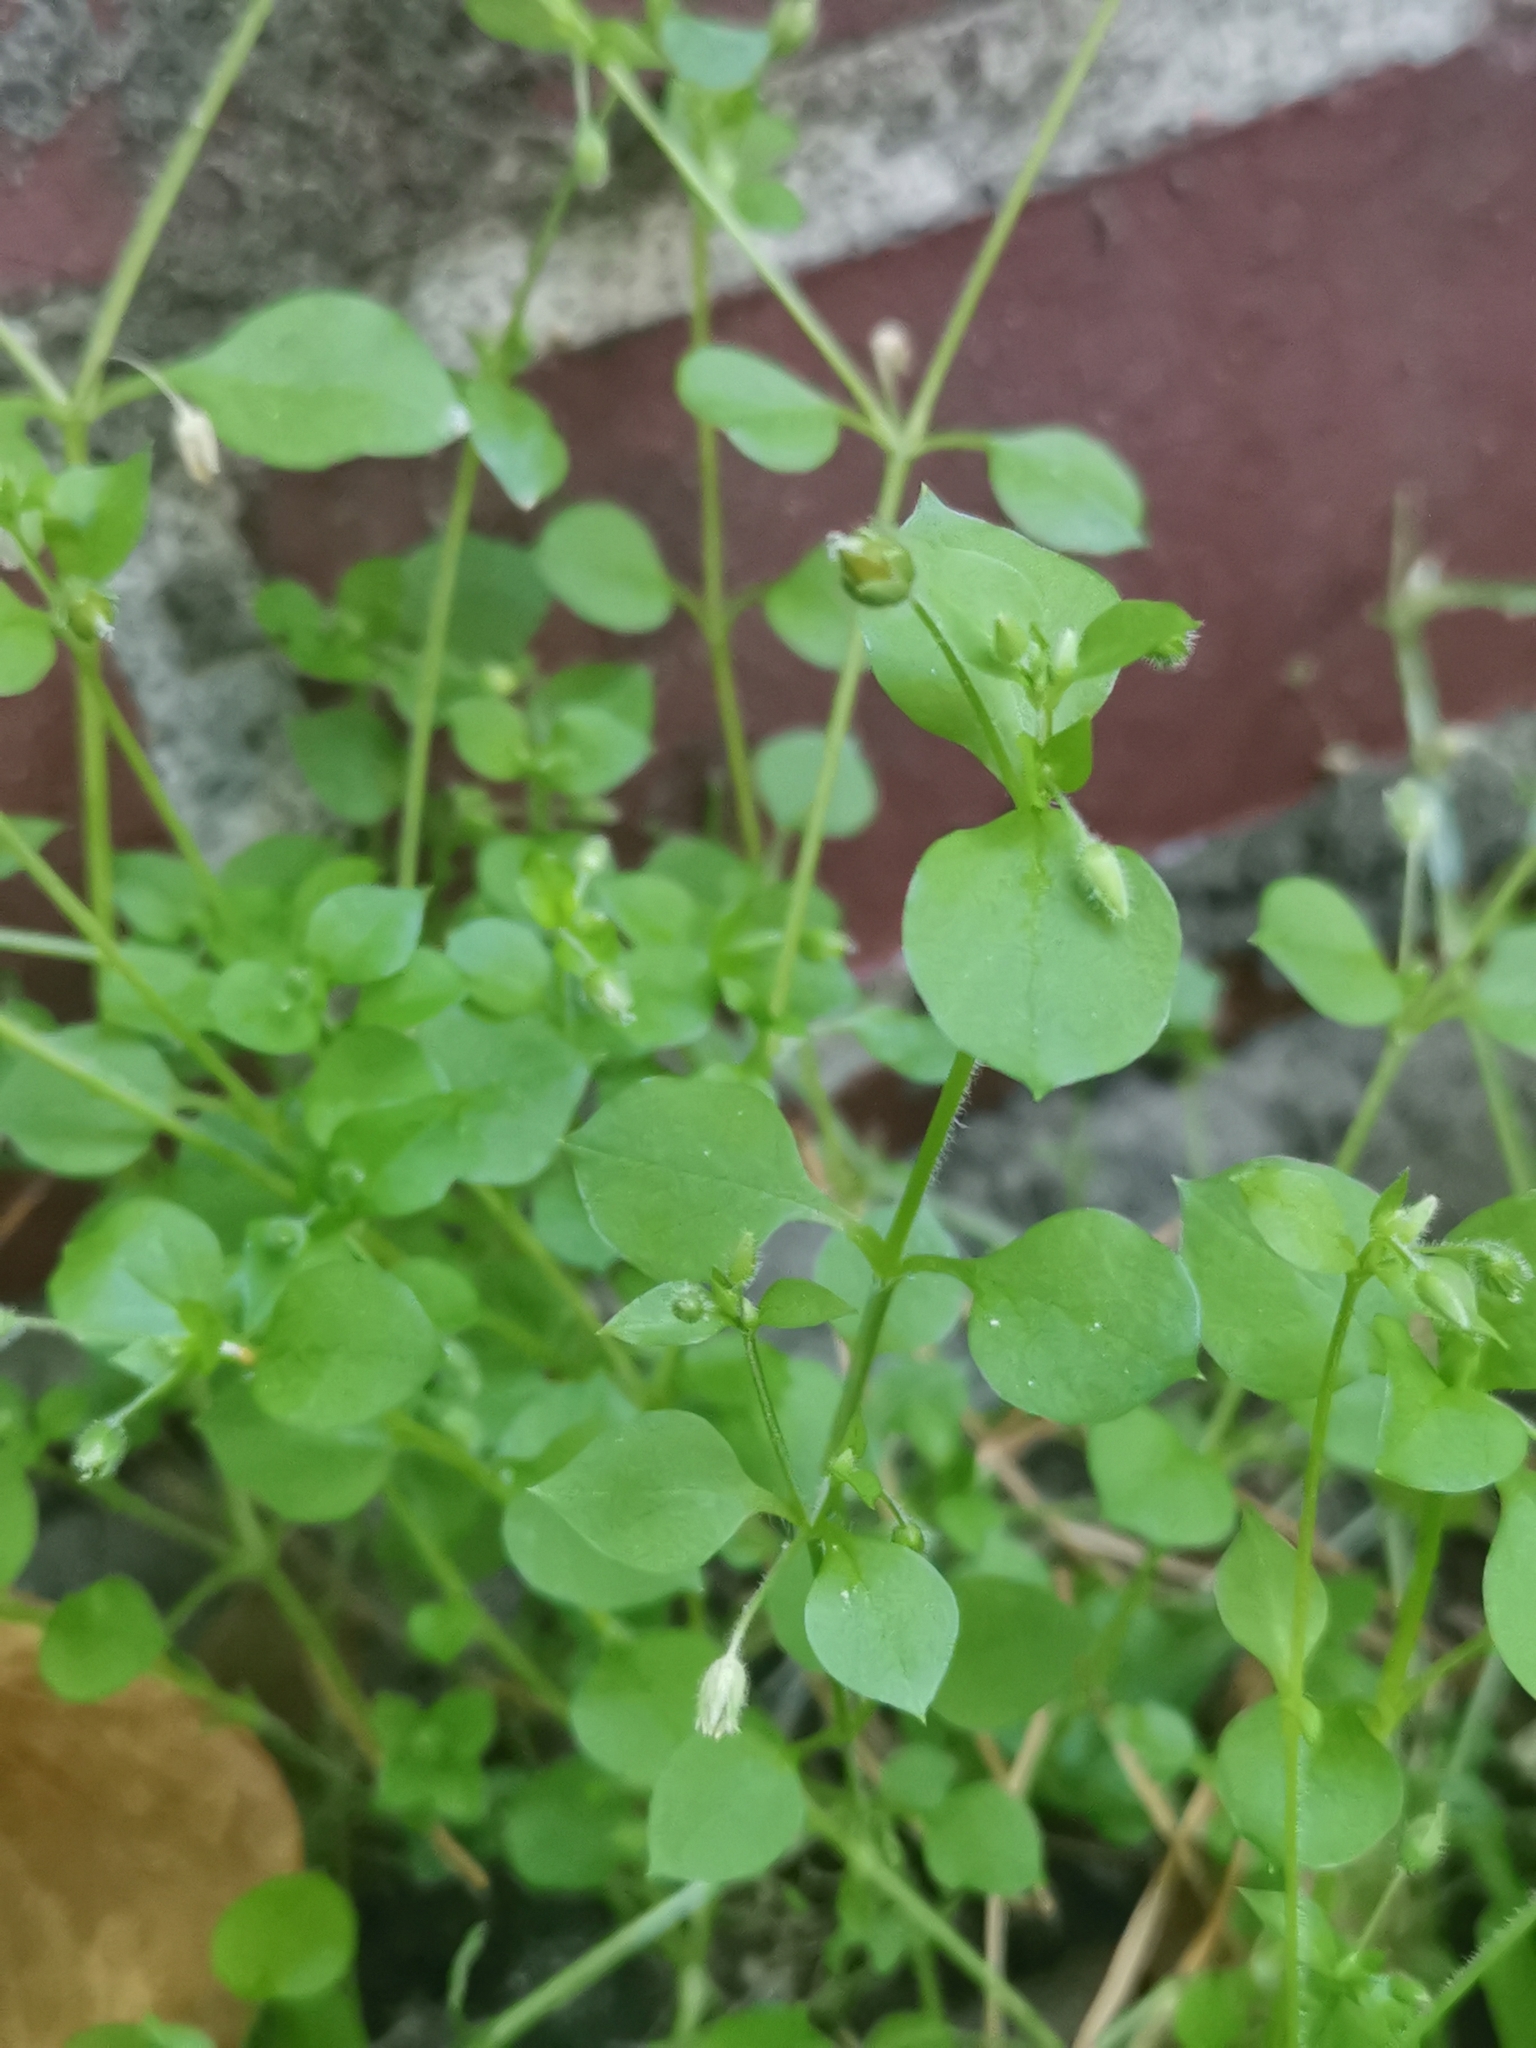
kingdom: Plantae
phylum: Tracheophyta
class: Magnoliopsida
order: Caryophyllales
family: Caryophyllaceae
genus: Stellaria
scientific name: Stellaria media
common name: Common chickweed
